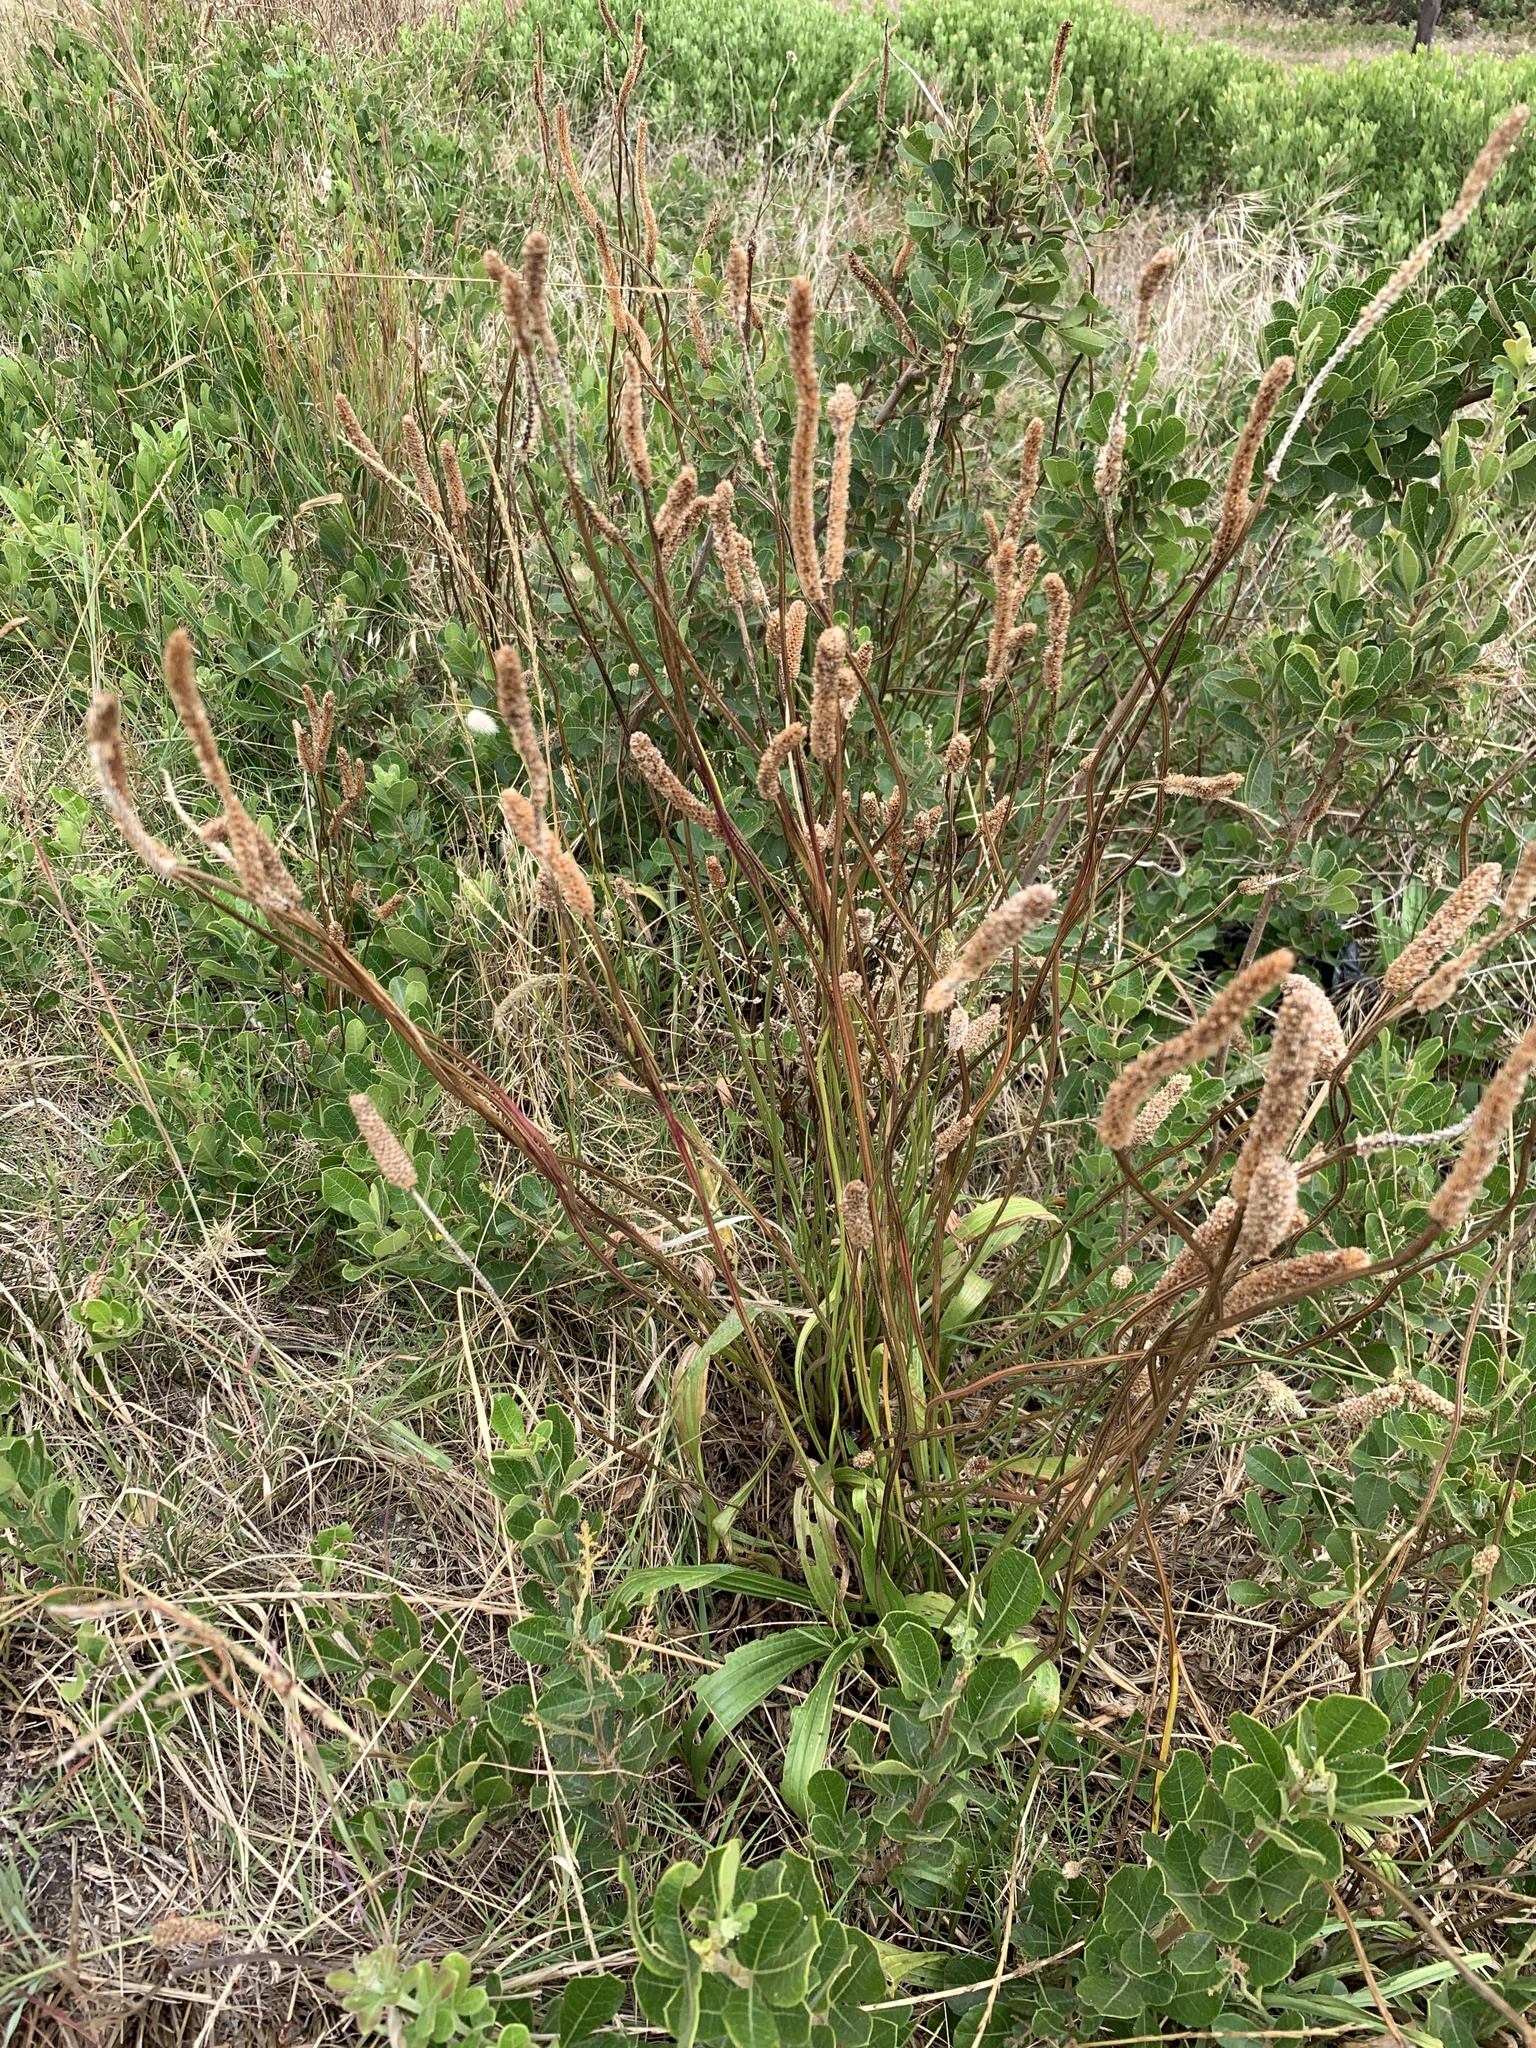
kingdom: Plantae
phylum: Tracheophyta
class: Magnoliopsida
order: Lamiales
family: Plantaginaceae
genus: Plantago
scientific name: Plantago lanceolata
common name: Ribwort plantain
